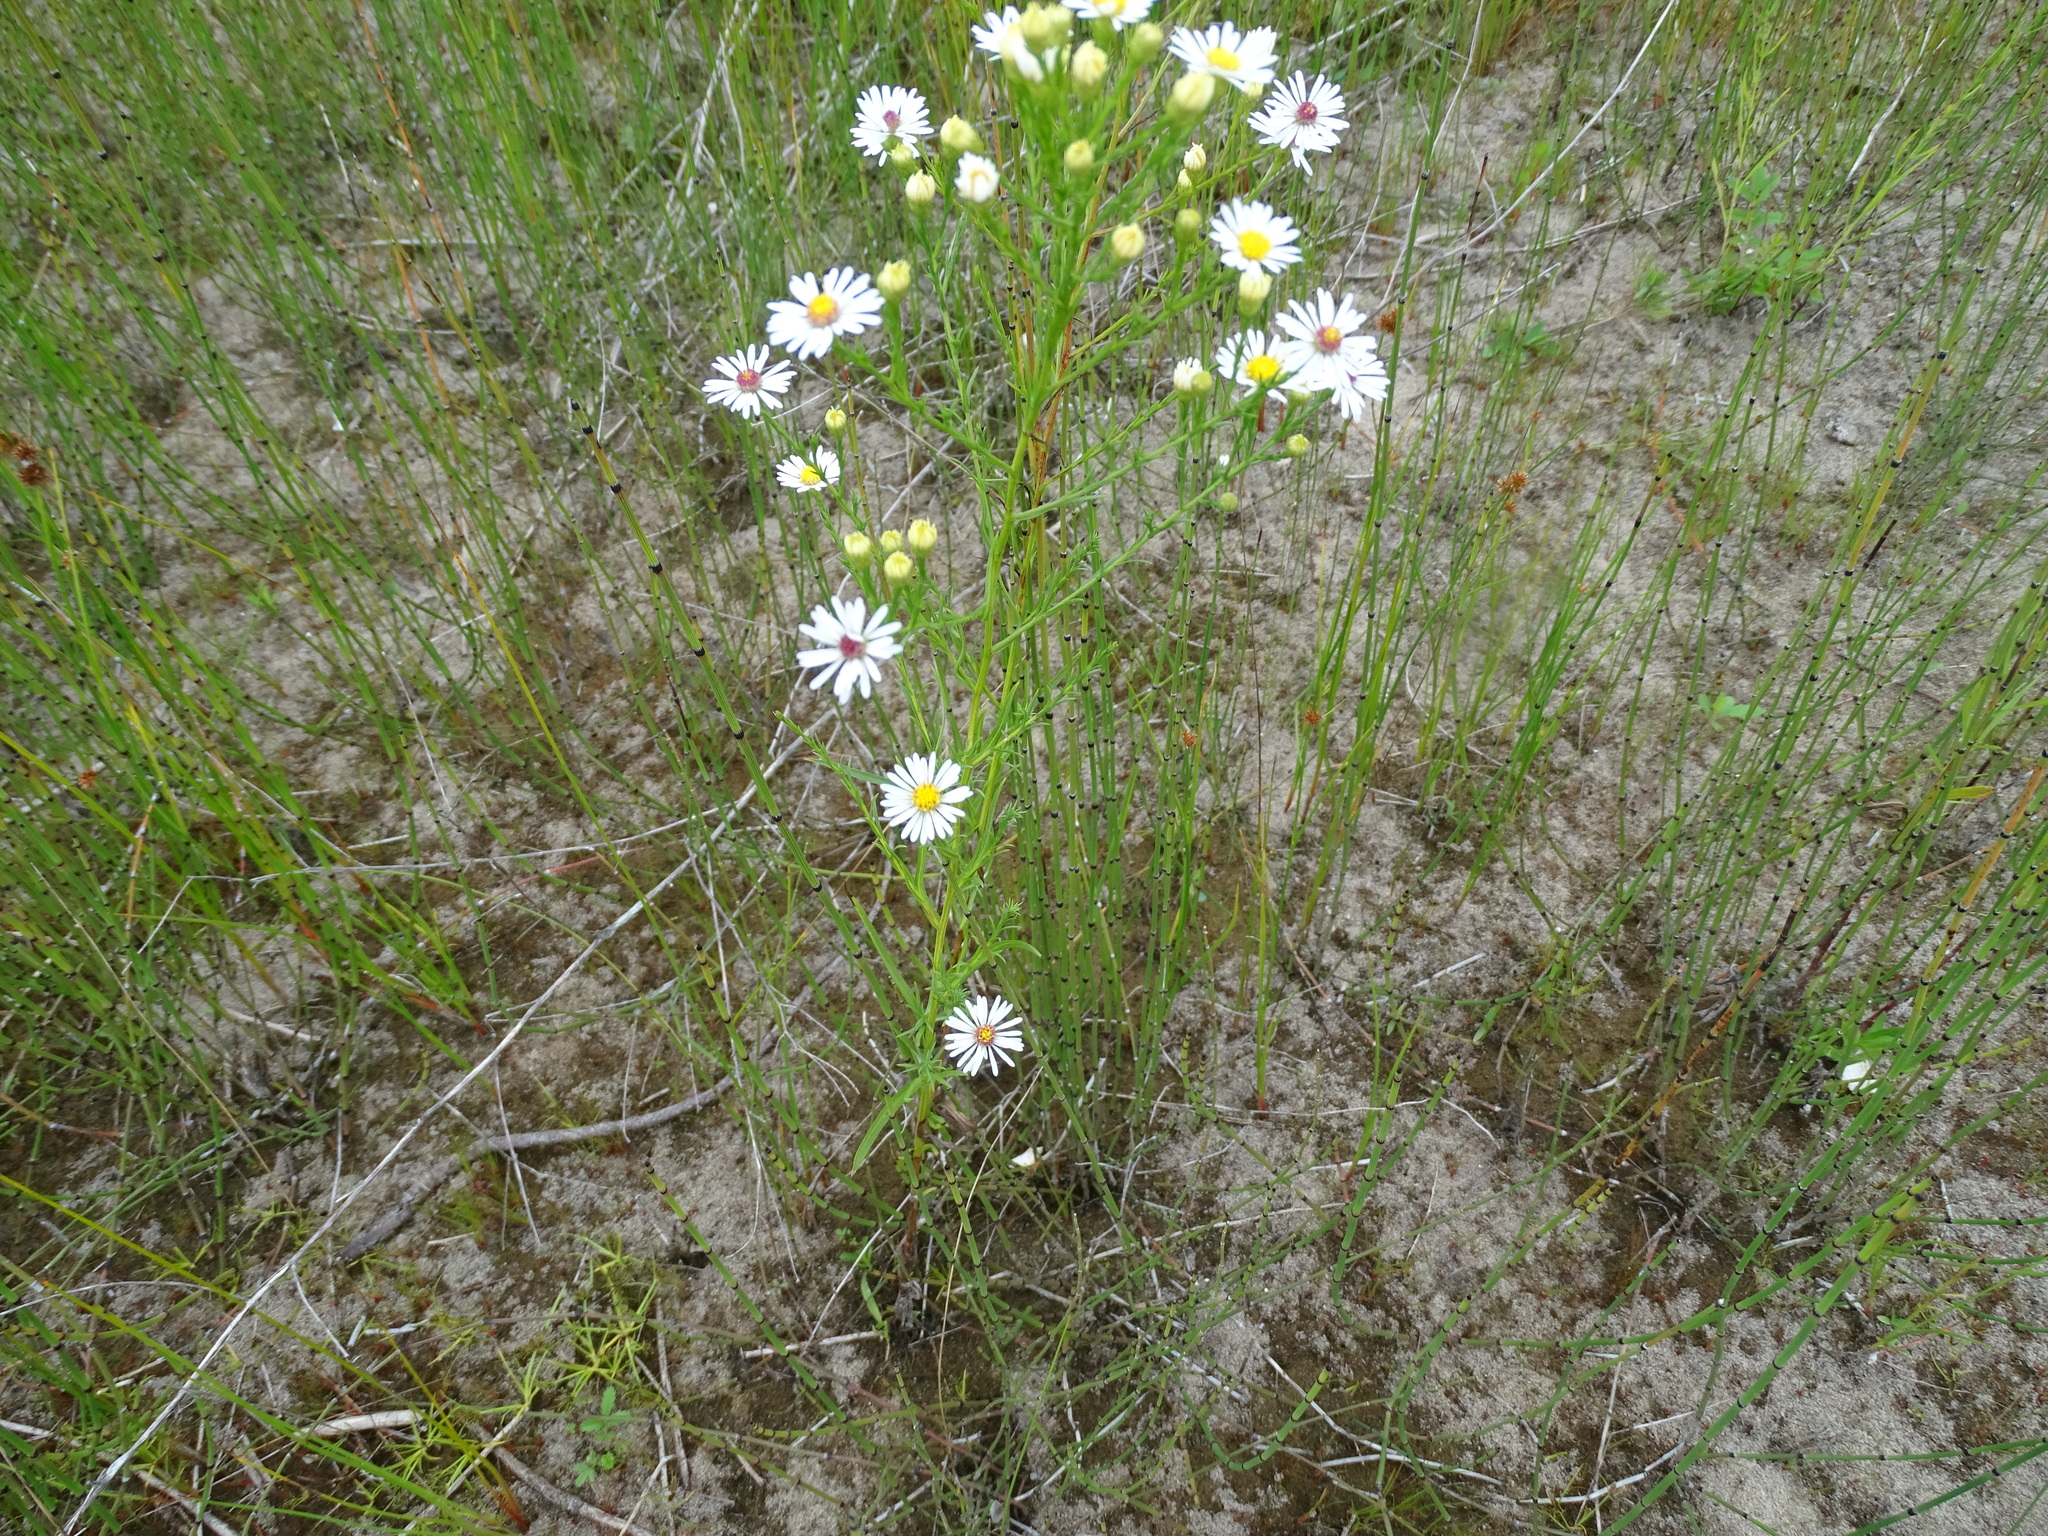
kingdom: Plantae
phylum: Tracheophyta
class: Magnoliopsida
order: Asterales
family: Asteraceae
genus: Symphyotrichum
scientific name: Symphyotrichum pilosum
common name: Awl aster
